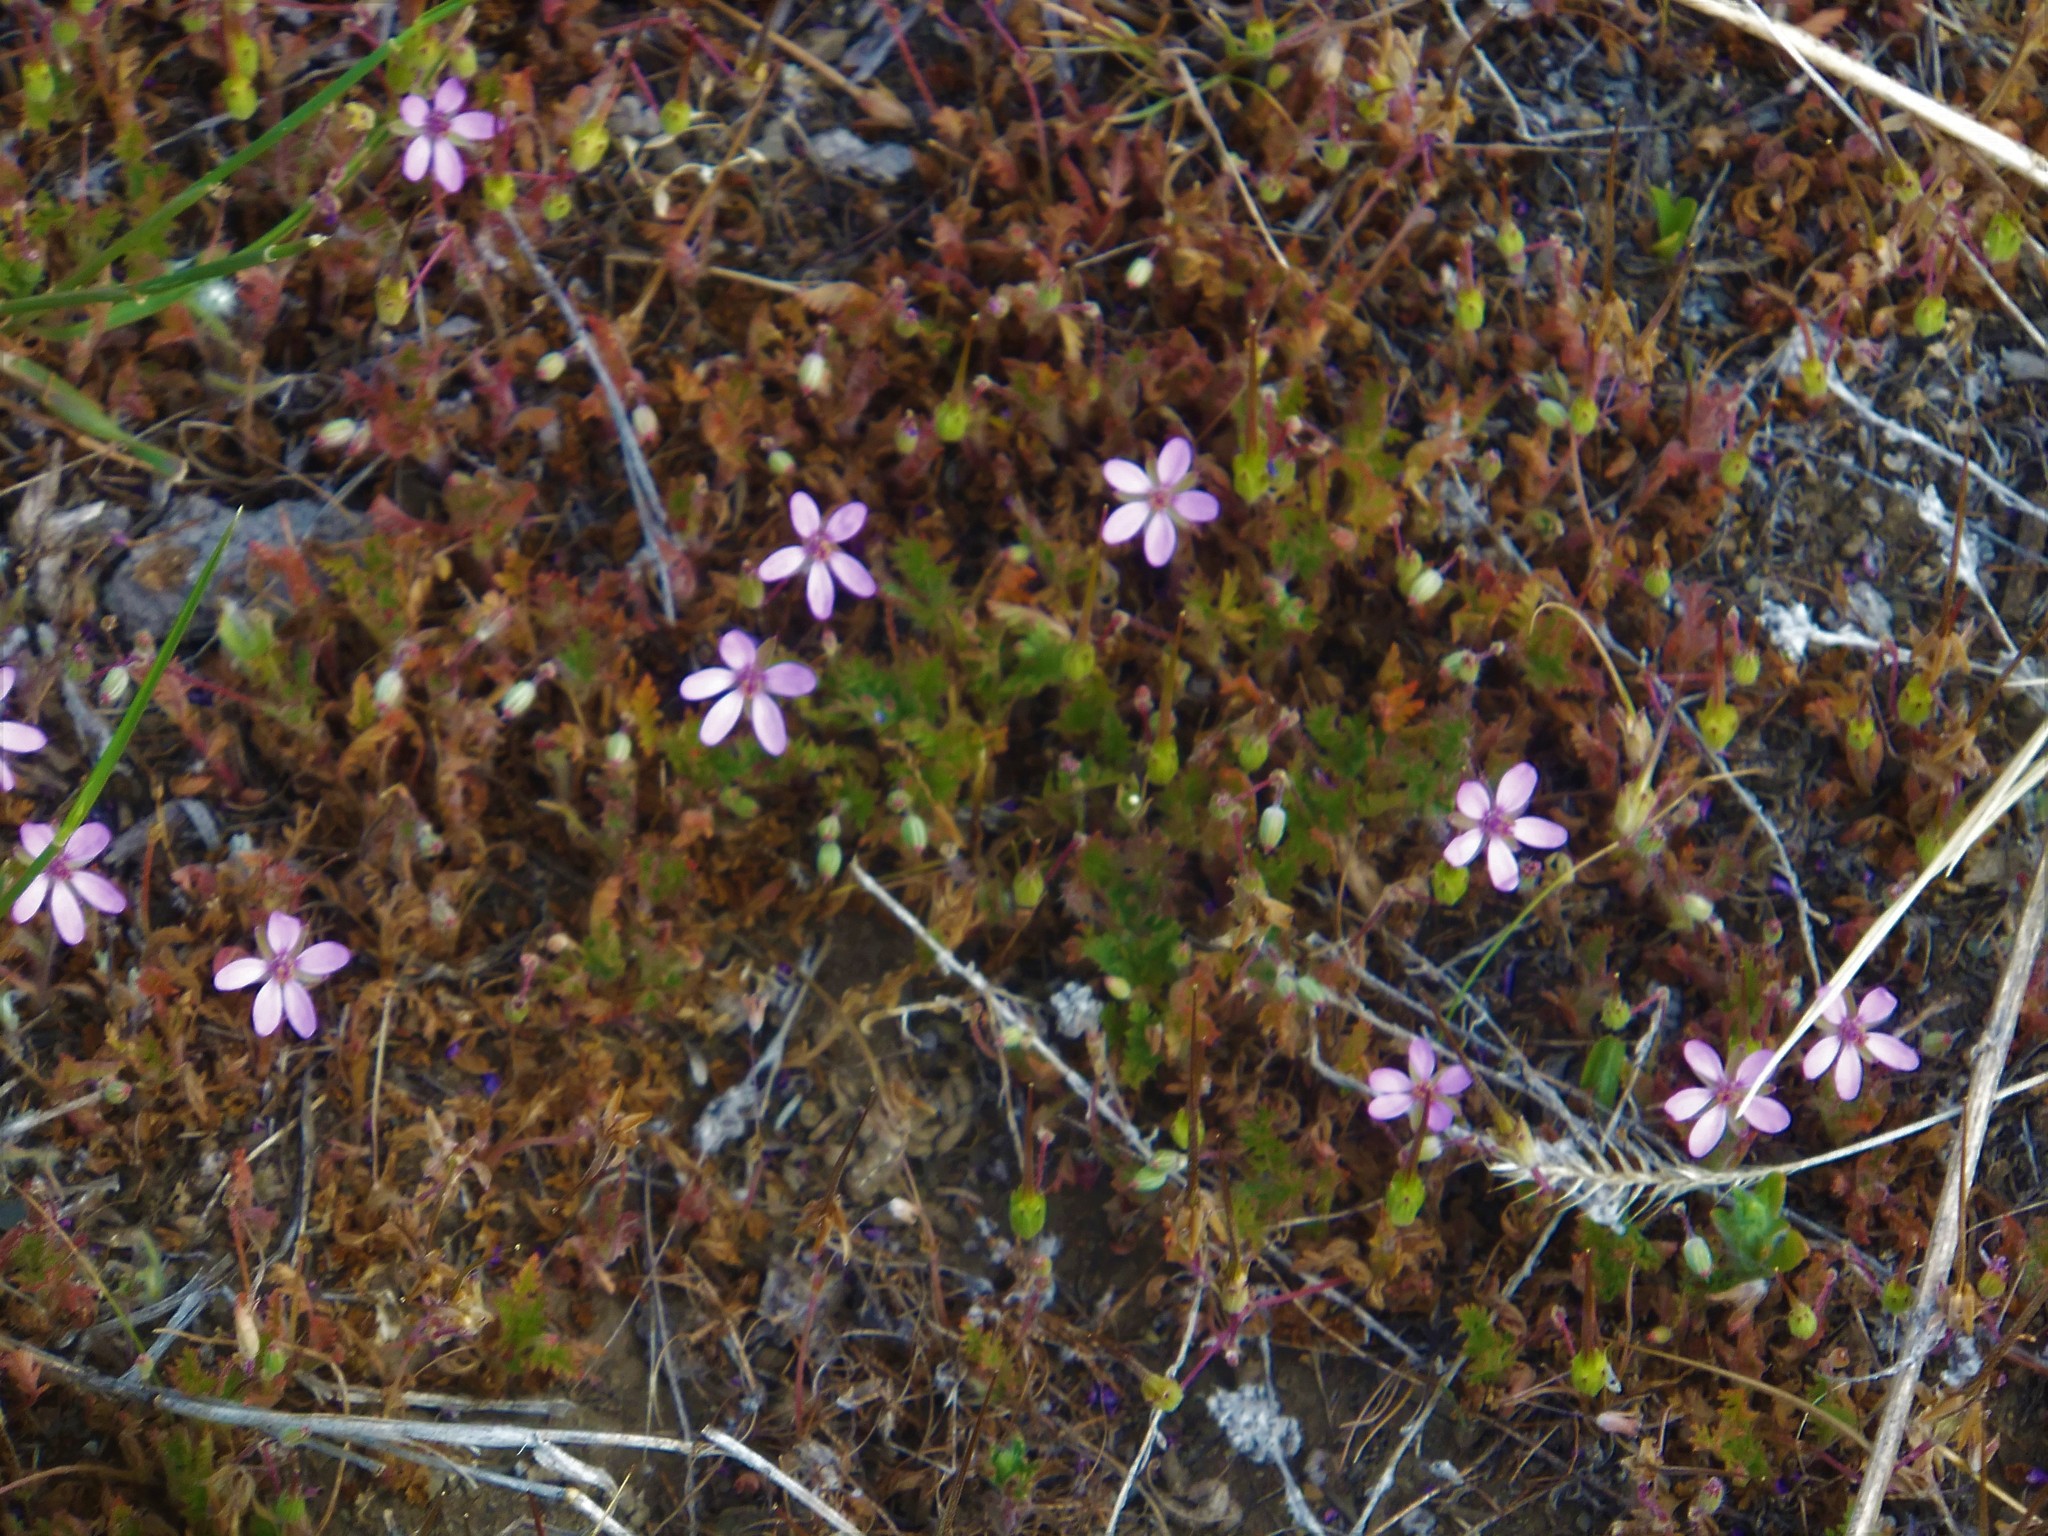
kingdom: Plantae
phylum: Tracheophyta
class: Magnoliopsida
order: Geraniales
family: Geraniaceae
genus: Erodium
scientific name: Erodium cicutarium
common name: Common stork's-bill
